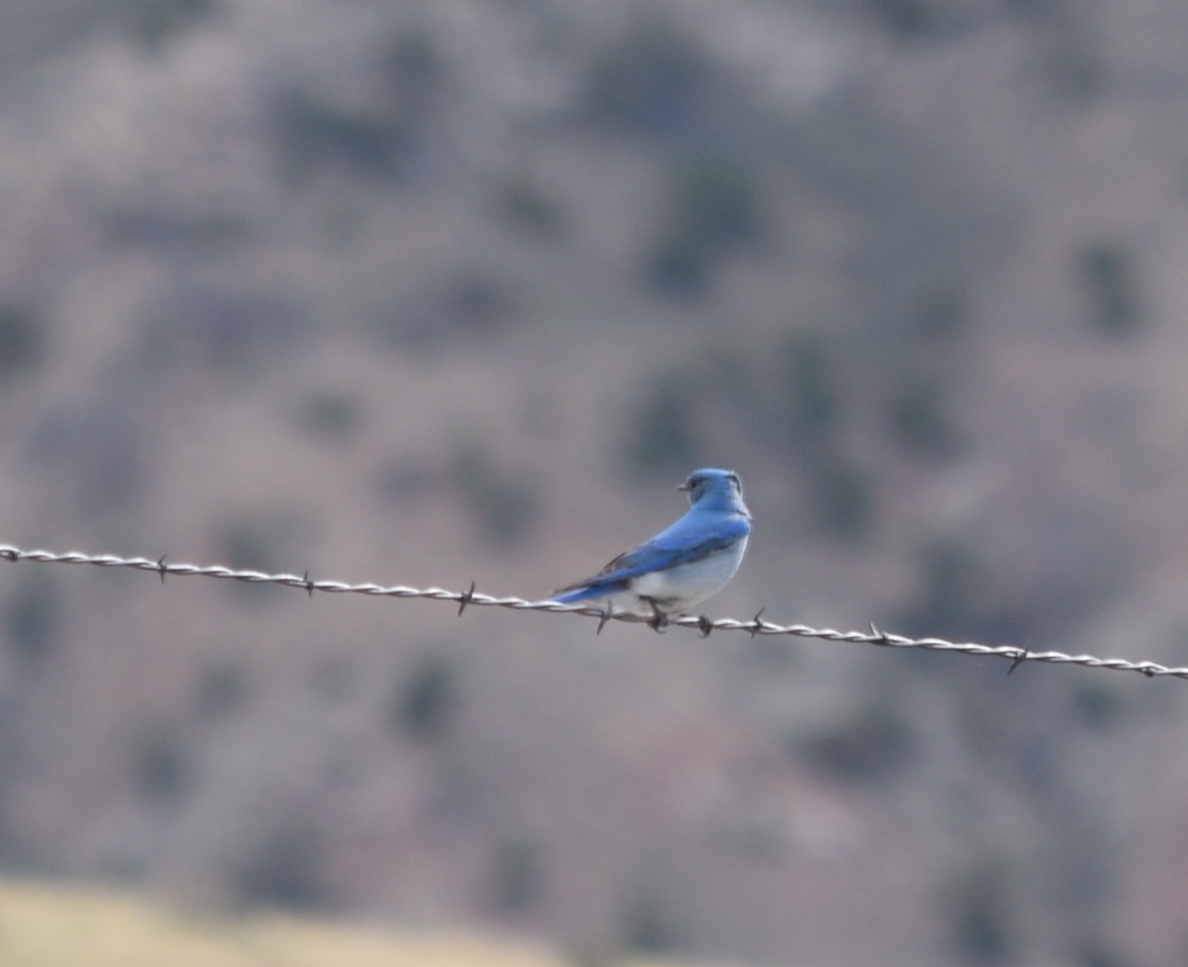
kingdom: Animalia
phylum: Chordata
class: Aves
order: Passeriformes
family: Turdidae
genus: Sialia
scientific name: Sialia currucoides
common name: Mountain bluebird
